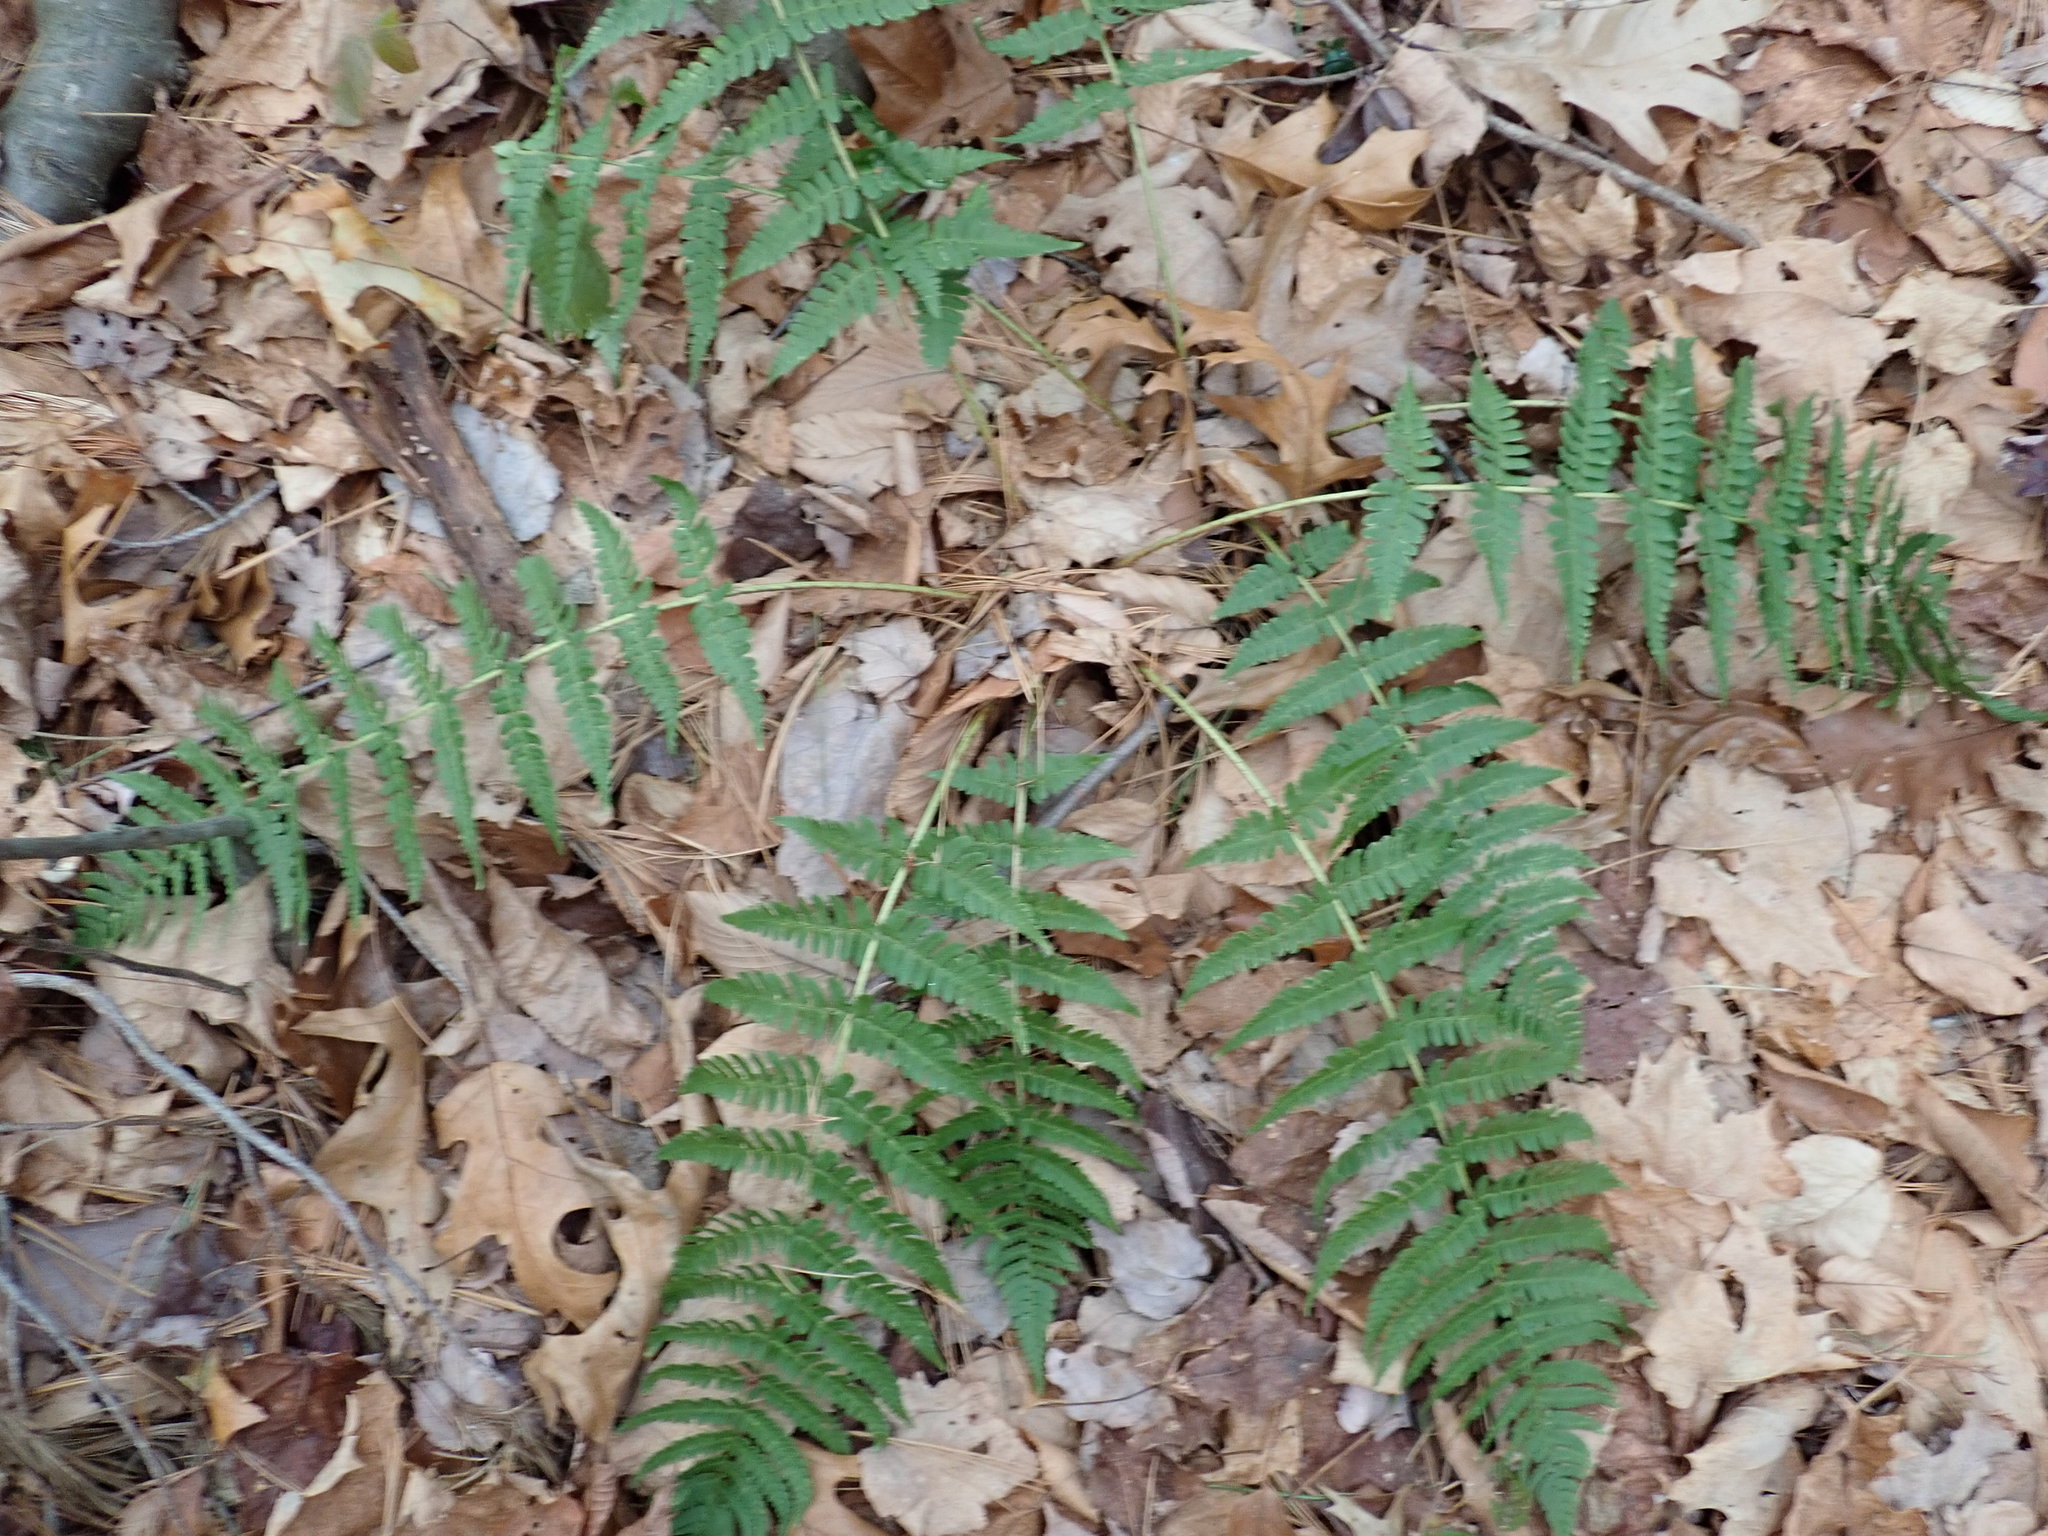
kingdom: Plantae
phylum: Tracheophyta
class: Polypodiopsida
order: Polypodiales
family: Dryopteridaceae
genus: Dryopteris
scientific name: Dryopteris marginalis
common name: Marginal wood fern
